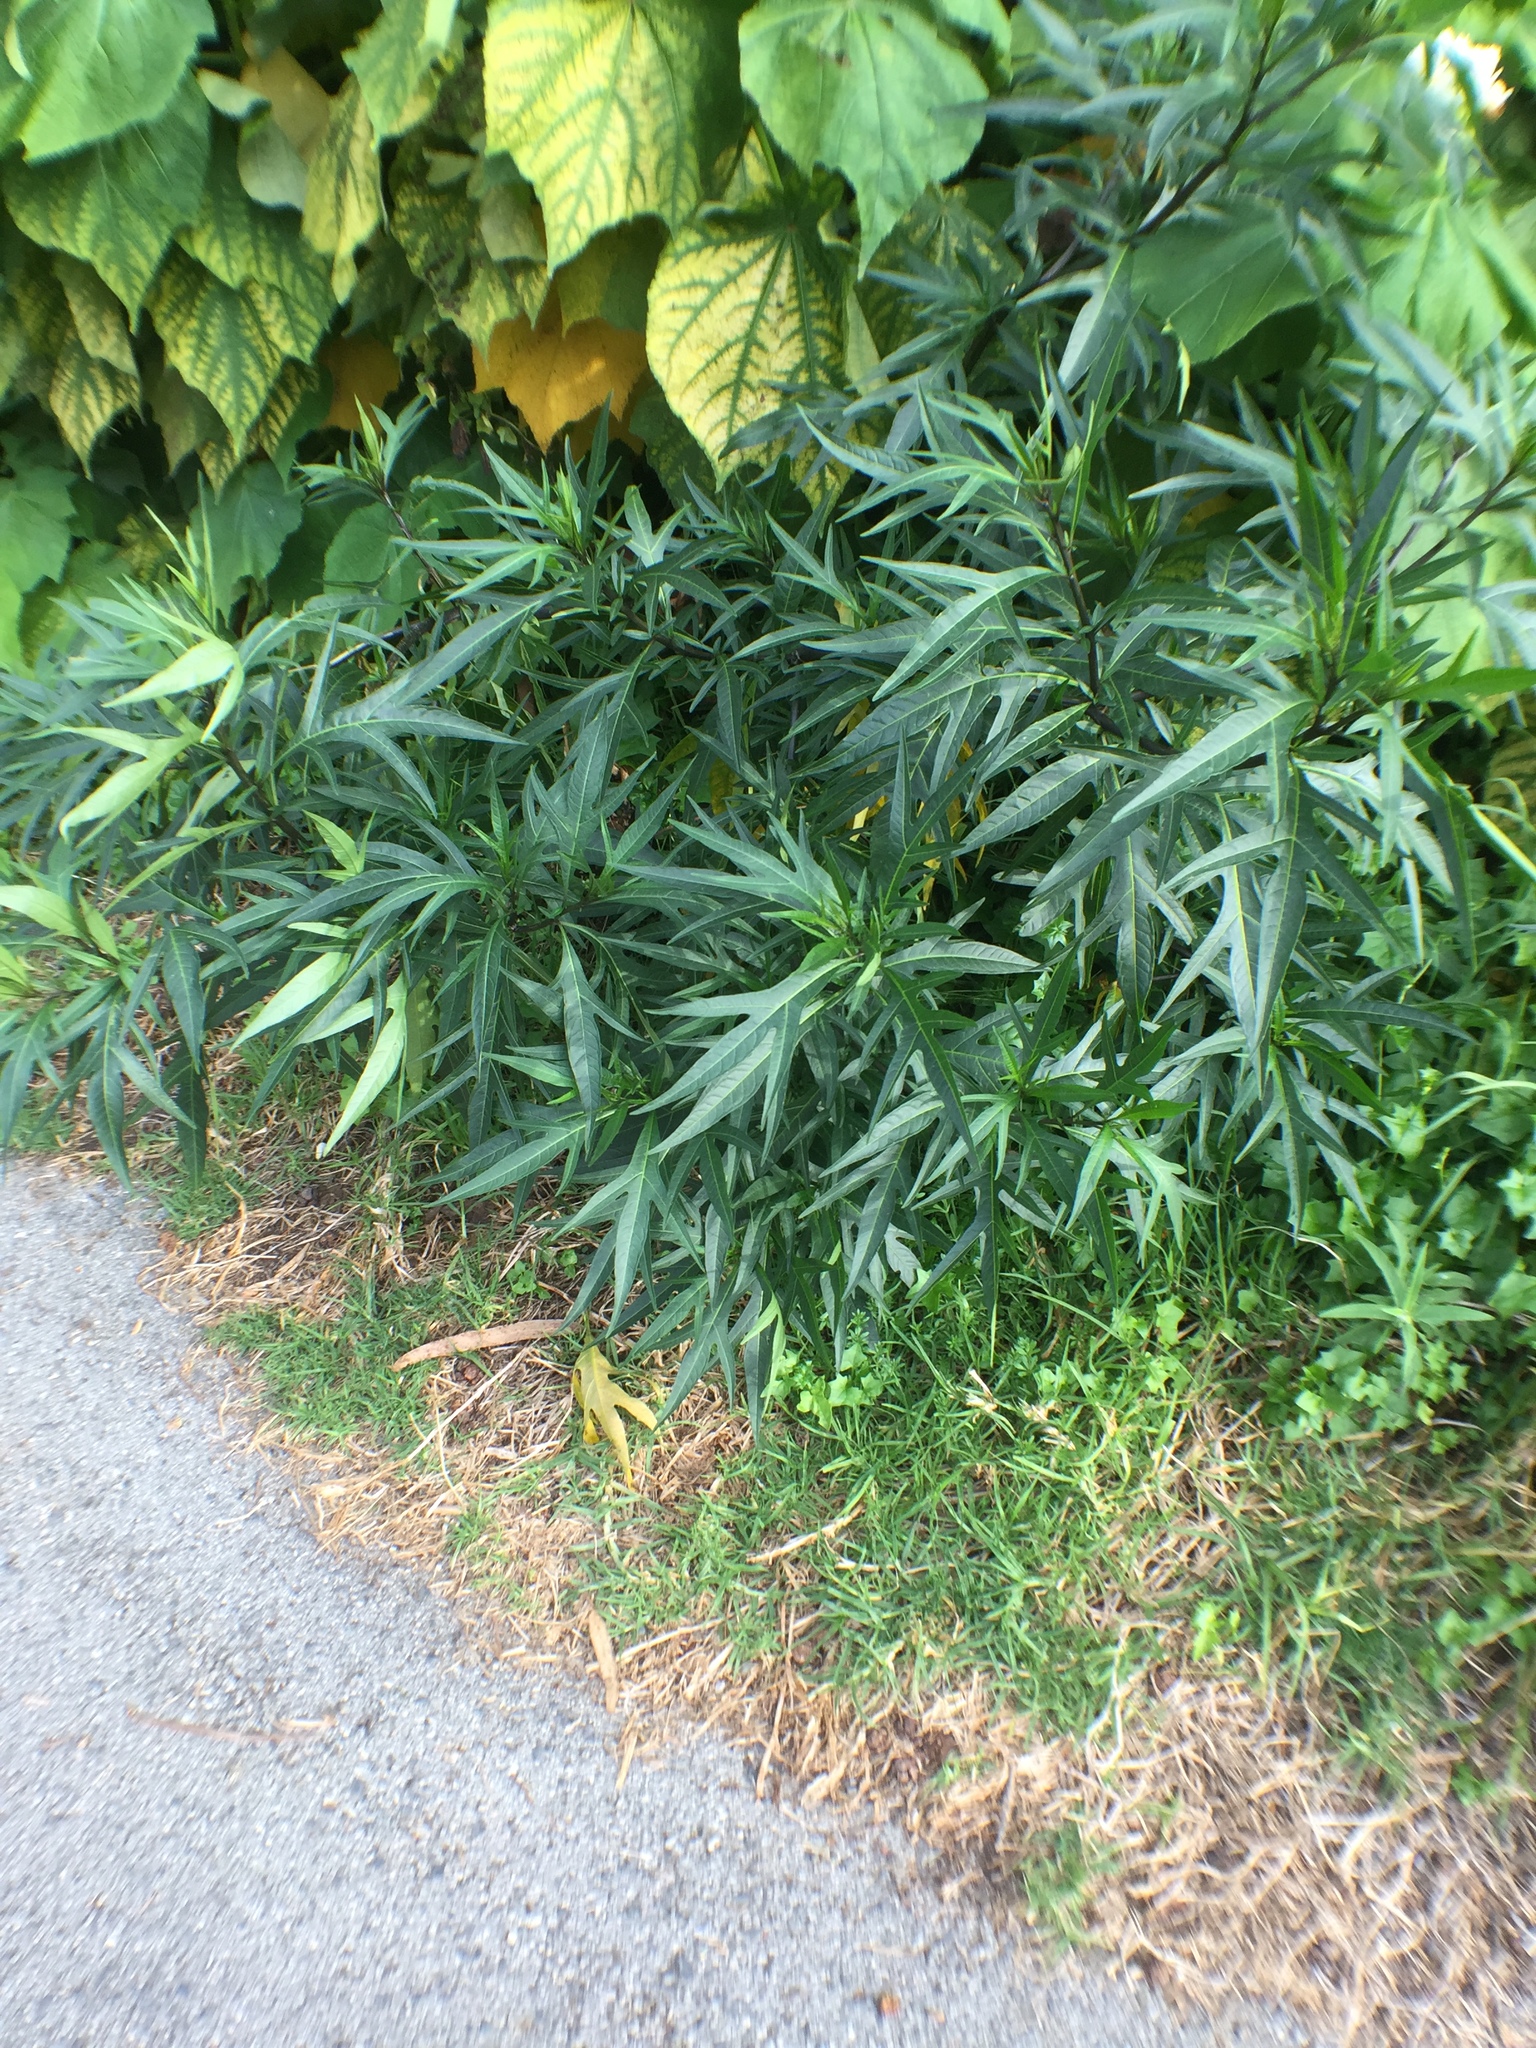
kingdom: Plantae
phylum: Tracheophyta
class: Magnoliopsida
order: Solanales
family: Solanaceae
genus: Solanum
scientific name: Solanum laciniatum
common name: Kangaroo-apple
